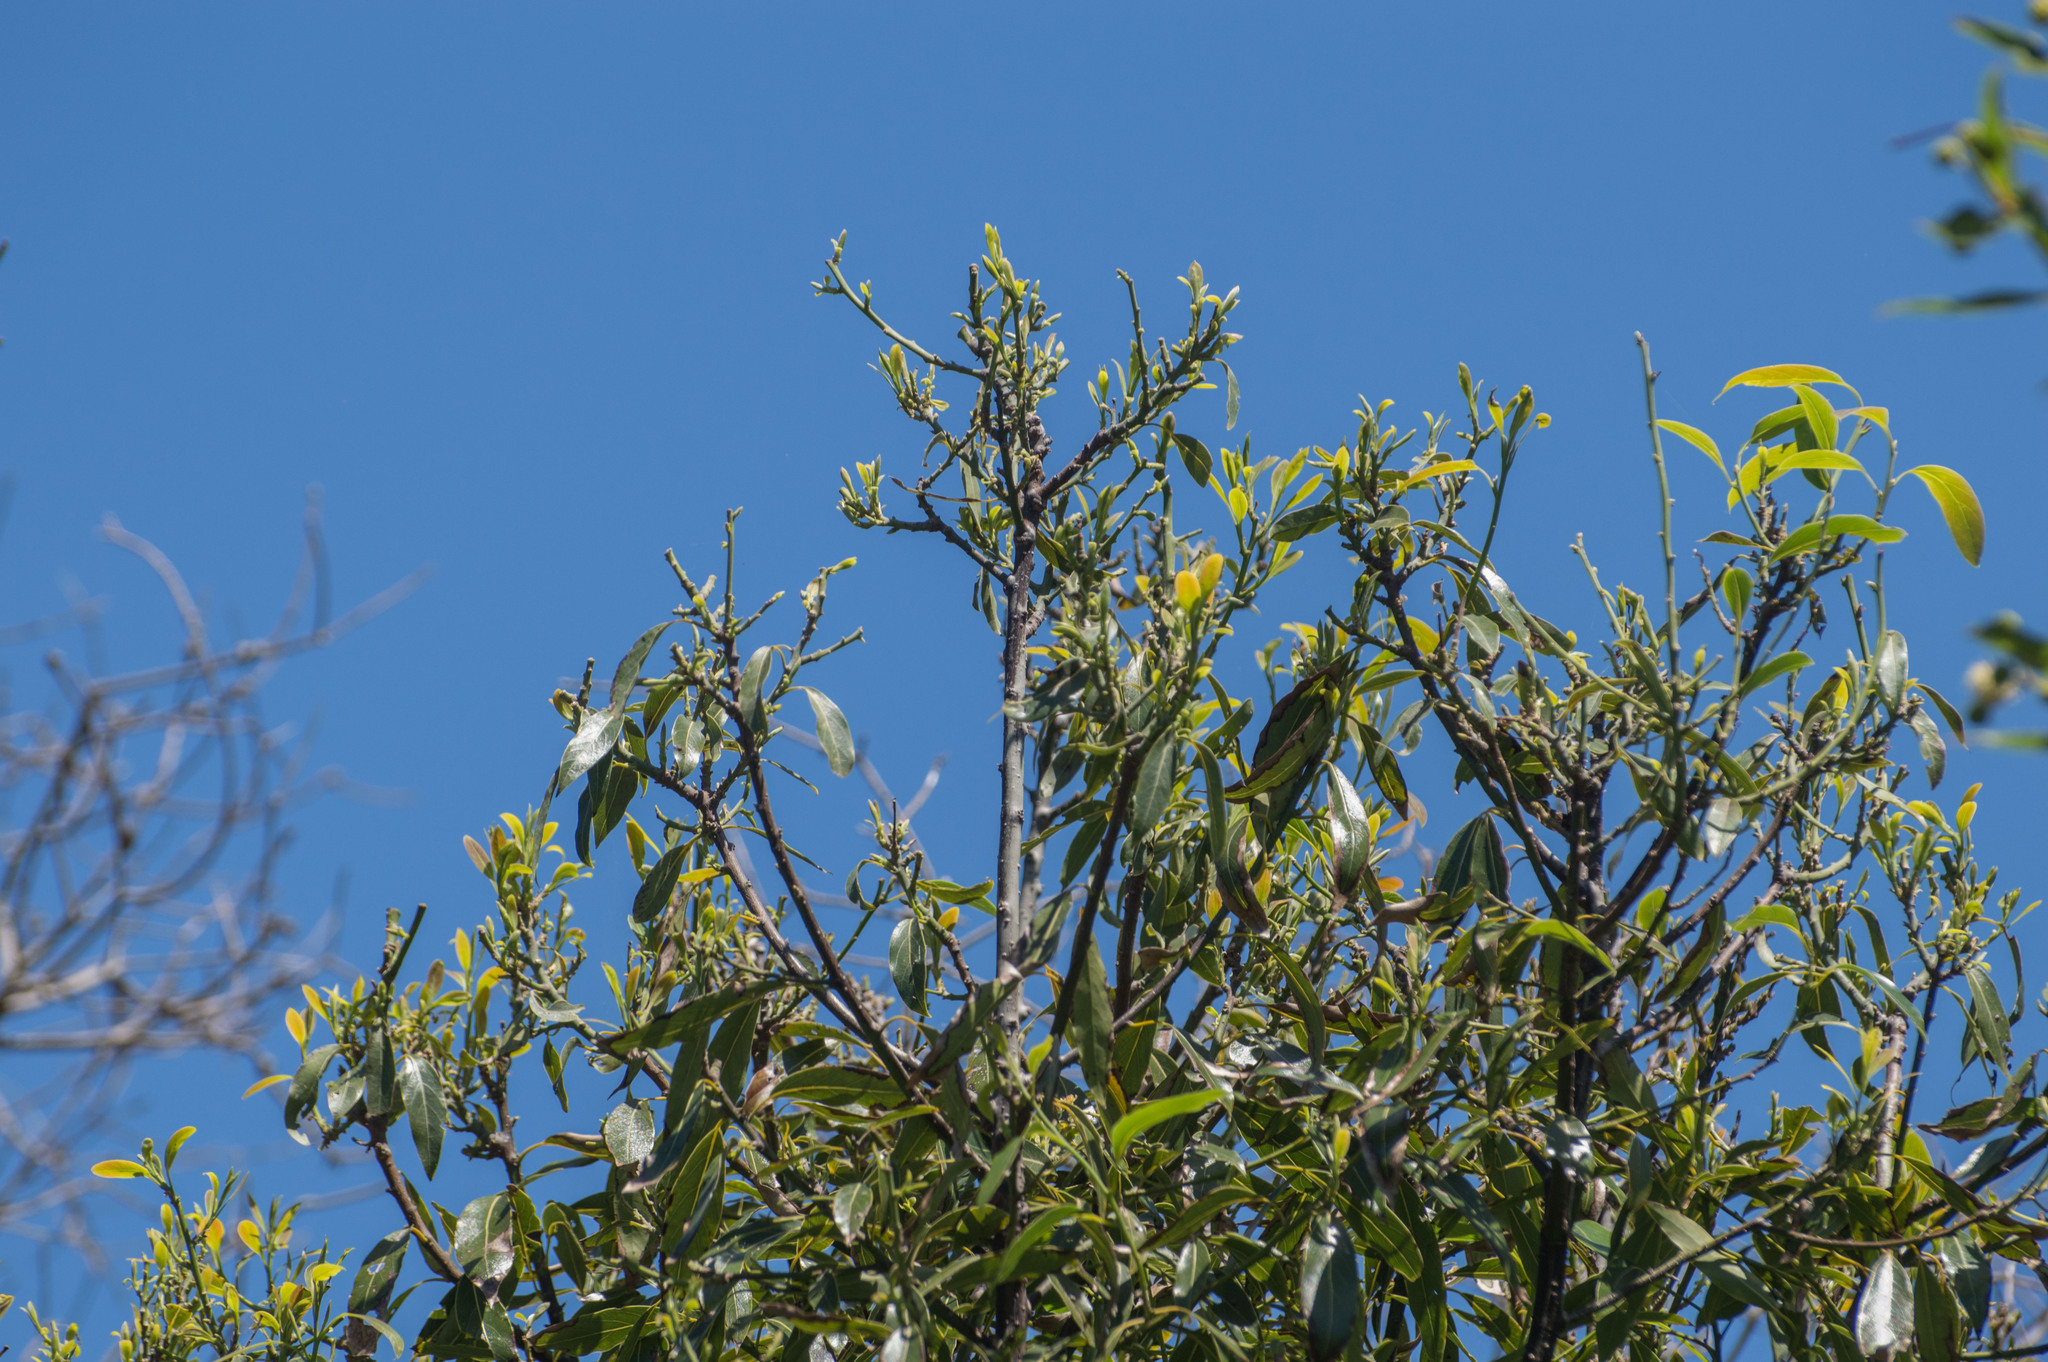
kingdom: Plantae
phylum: Tracheophyta
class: Magnoliopsida
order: Laurales
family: Lauraceae
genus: Ocotea
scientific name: Ocotea acutifolia
